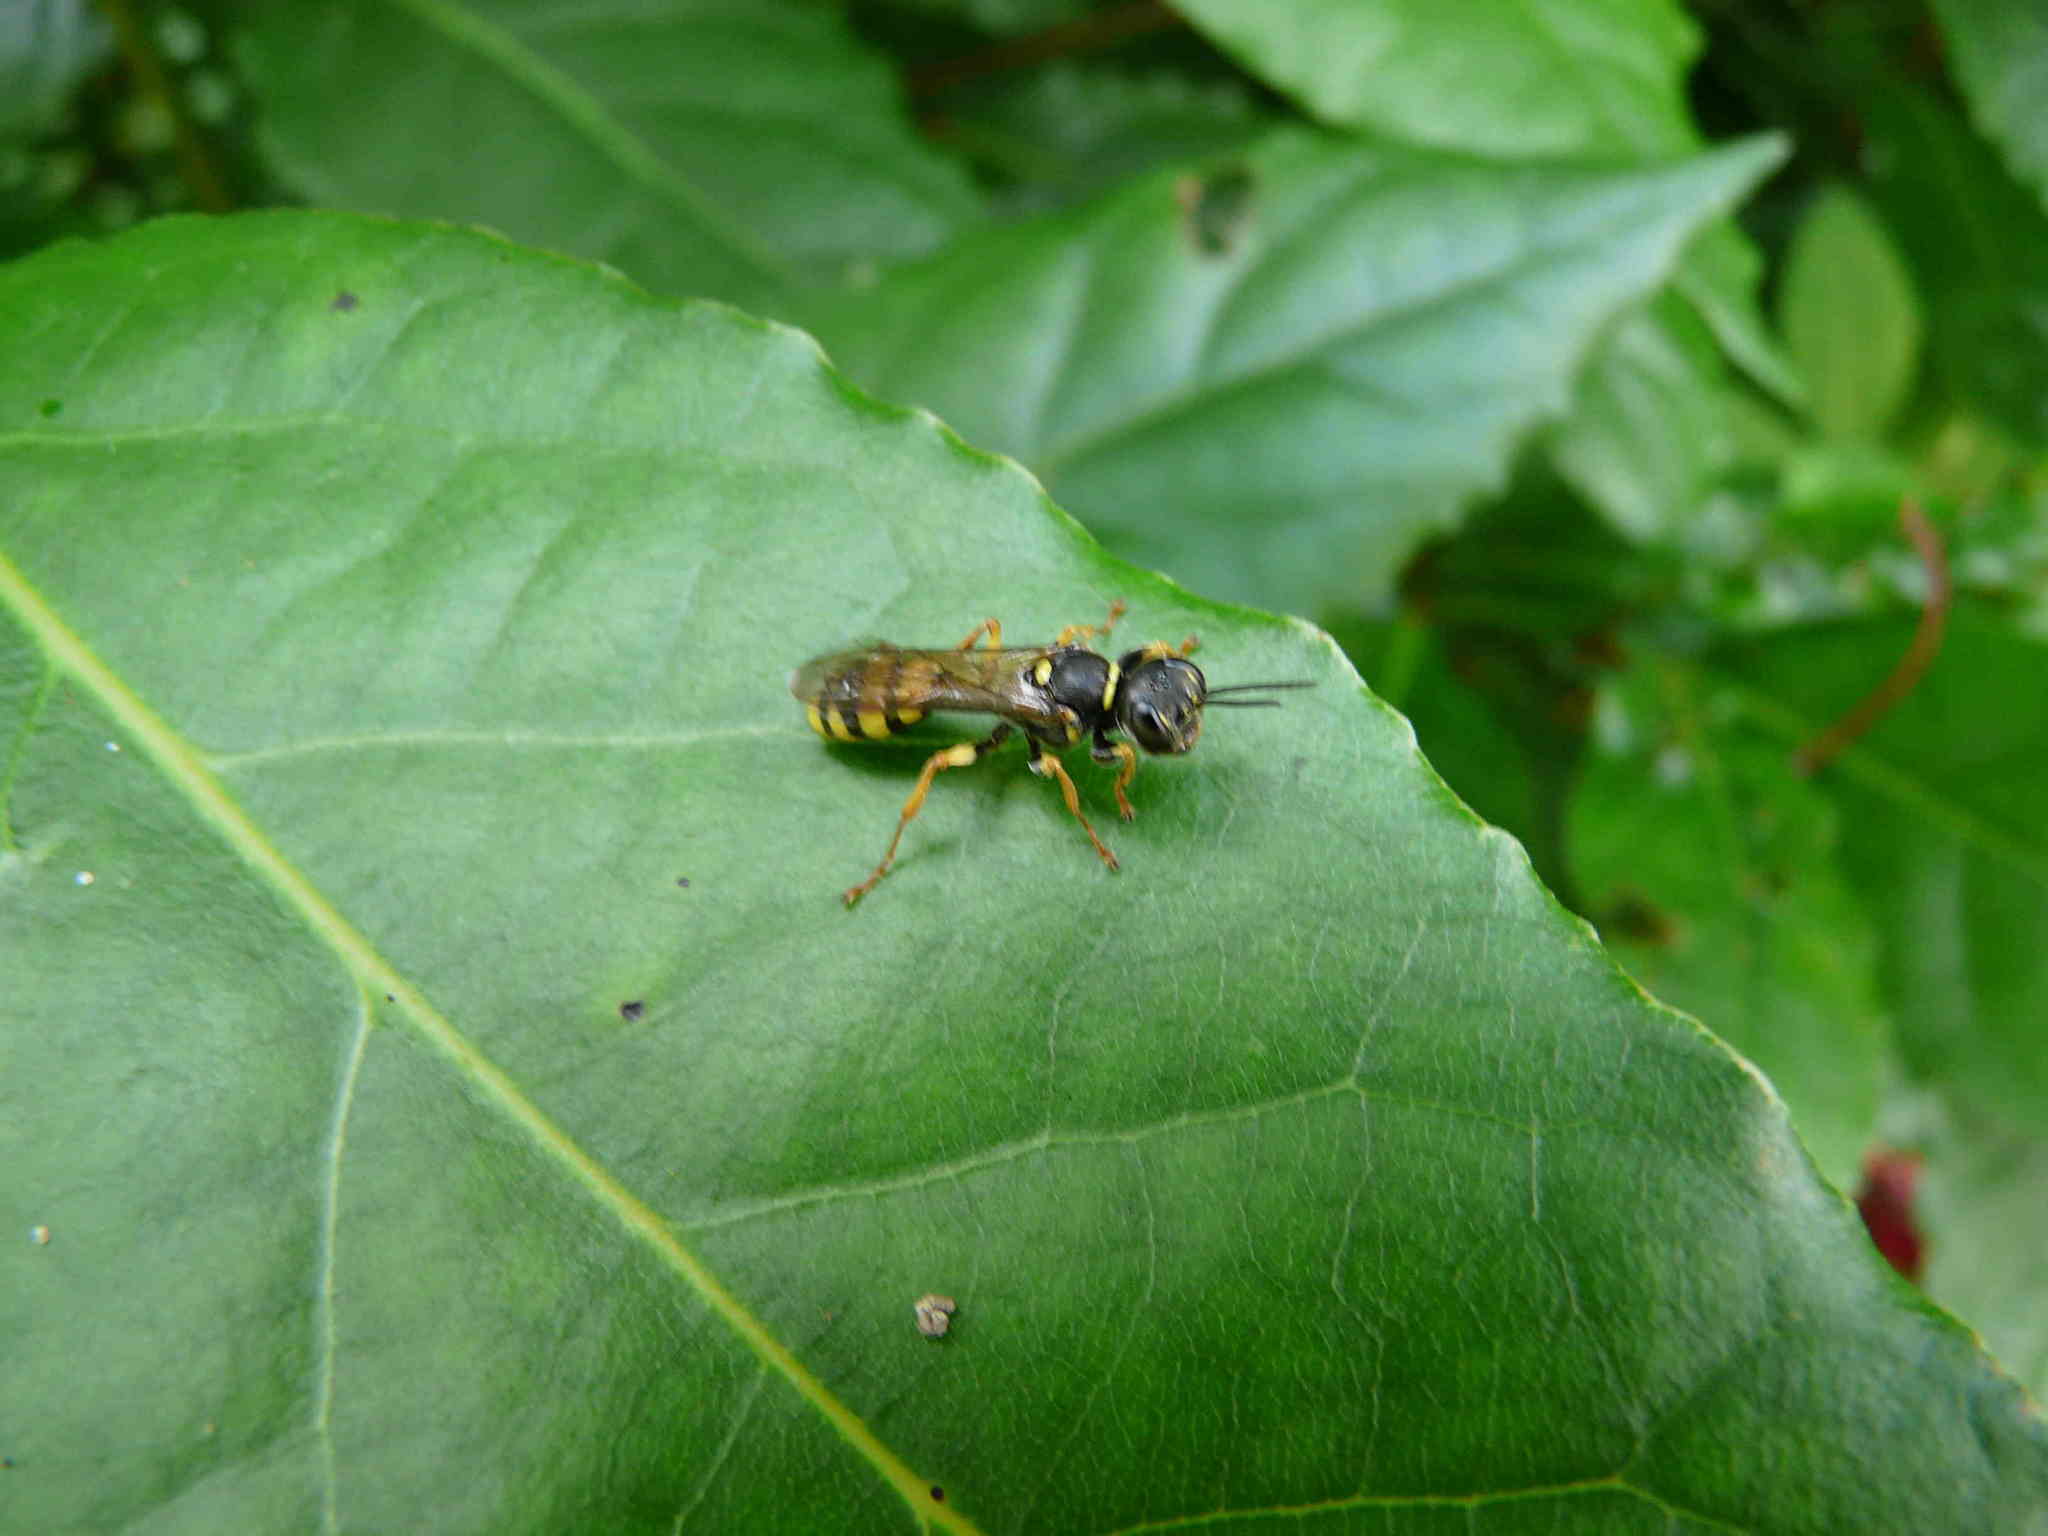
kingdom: Animalia
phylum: Arthropoda
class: Insecta
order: Hymenoptera
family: Crabronidae
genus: Mellinus
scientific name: Mellinus arvensis
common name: Field digger wasp
